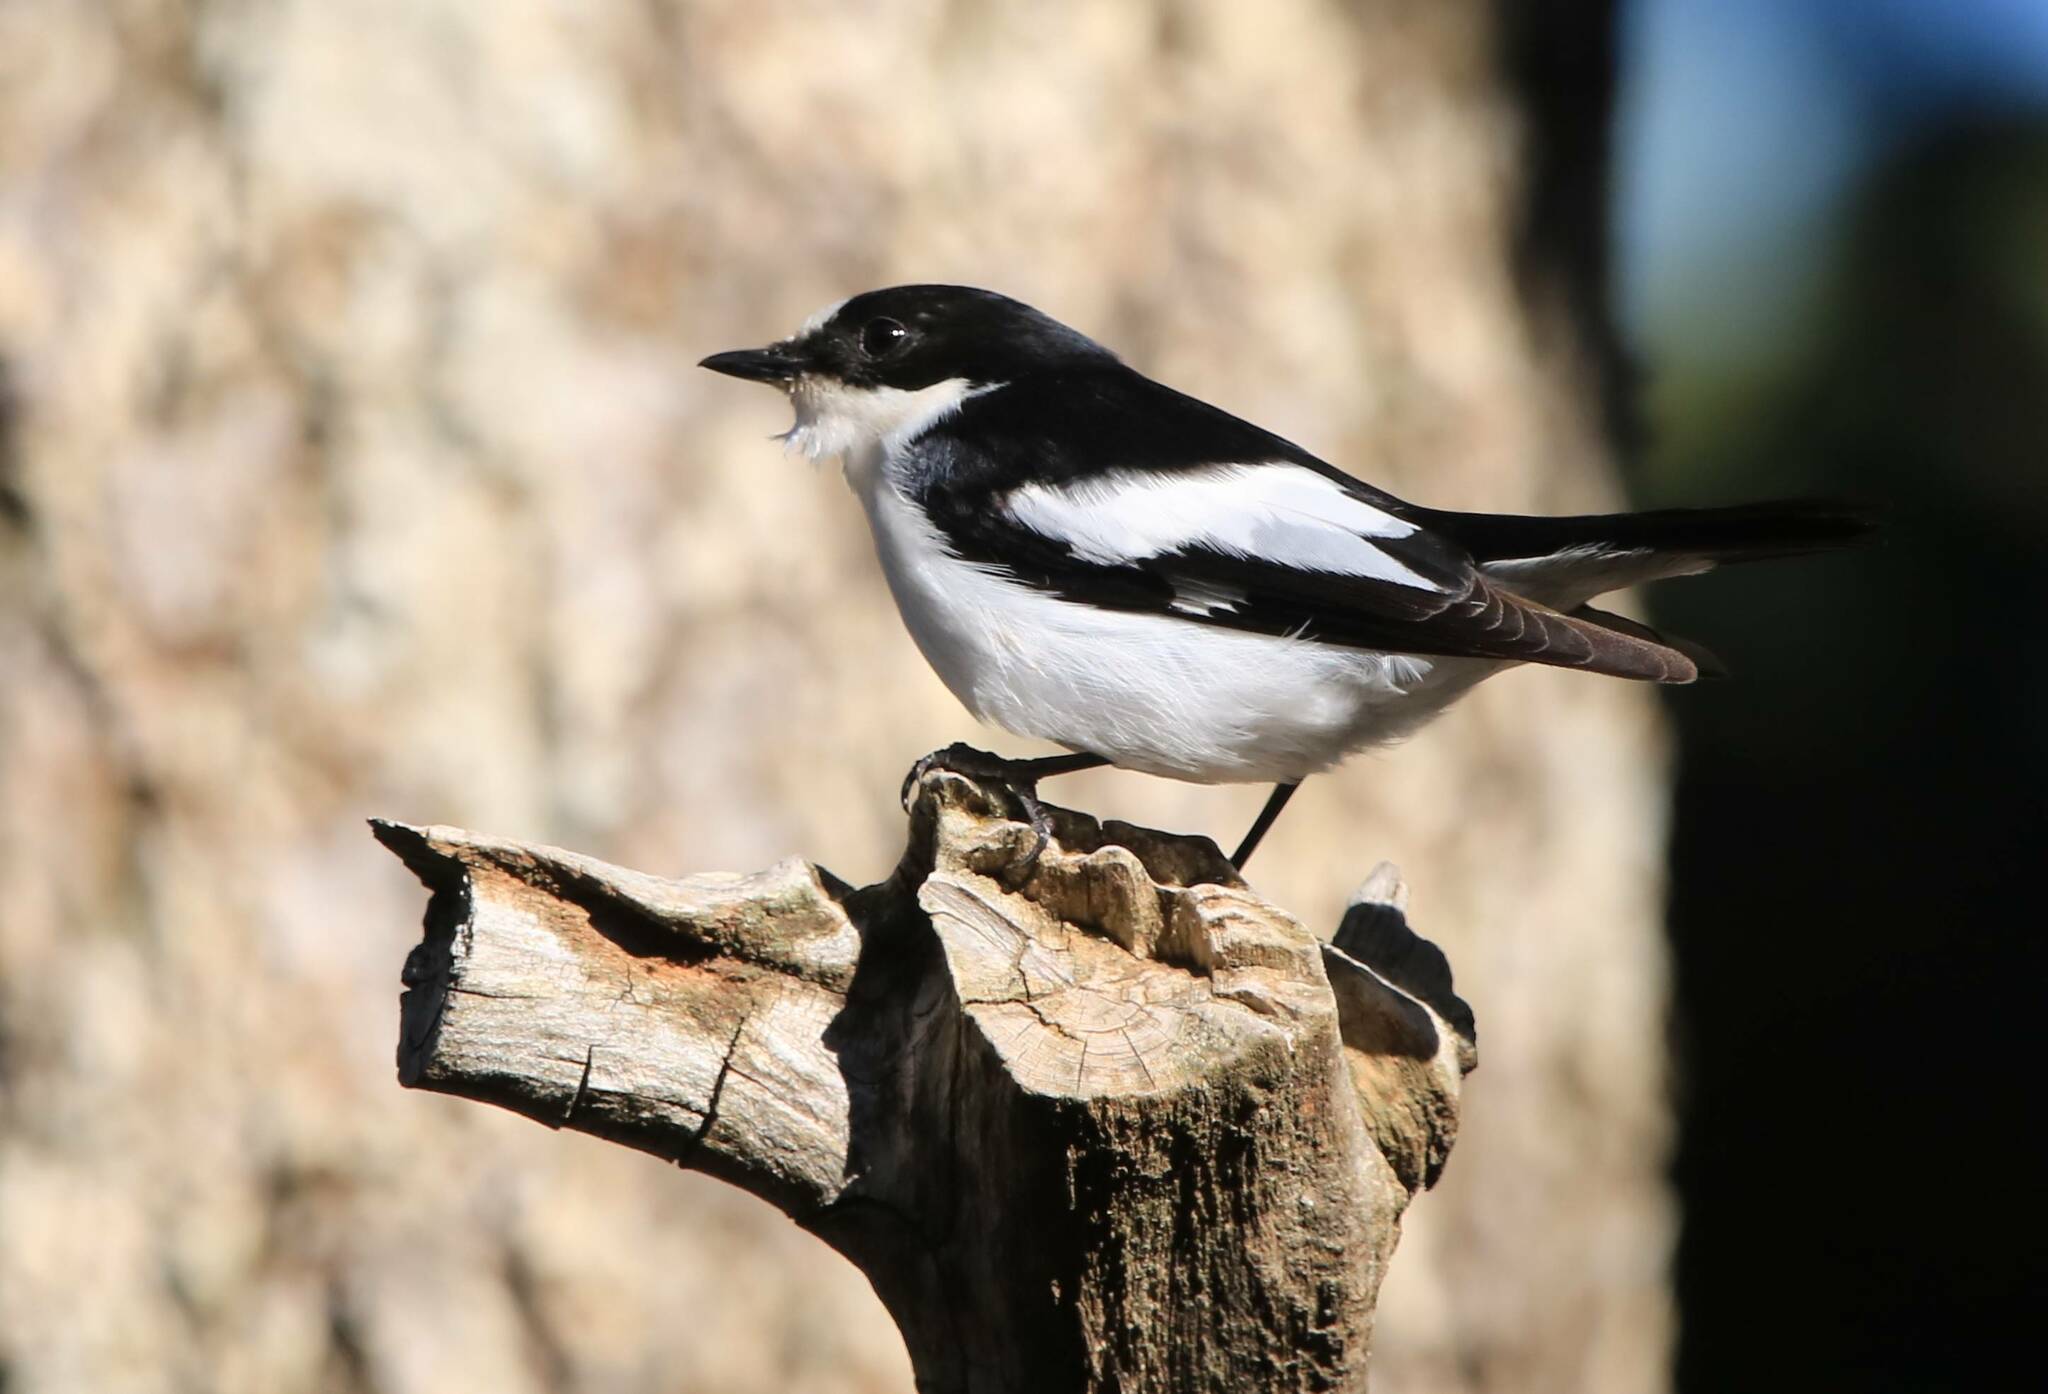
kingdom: Animalia
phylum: Chordata
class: Aves
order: Passeriformes
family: Muscicapidae
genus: Ficedula
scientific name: Ficedula speculigera
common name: Atlas pied flycatcher
